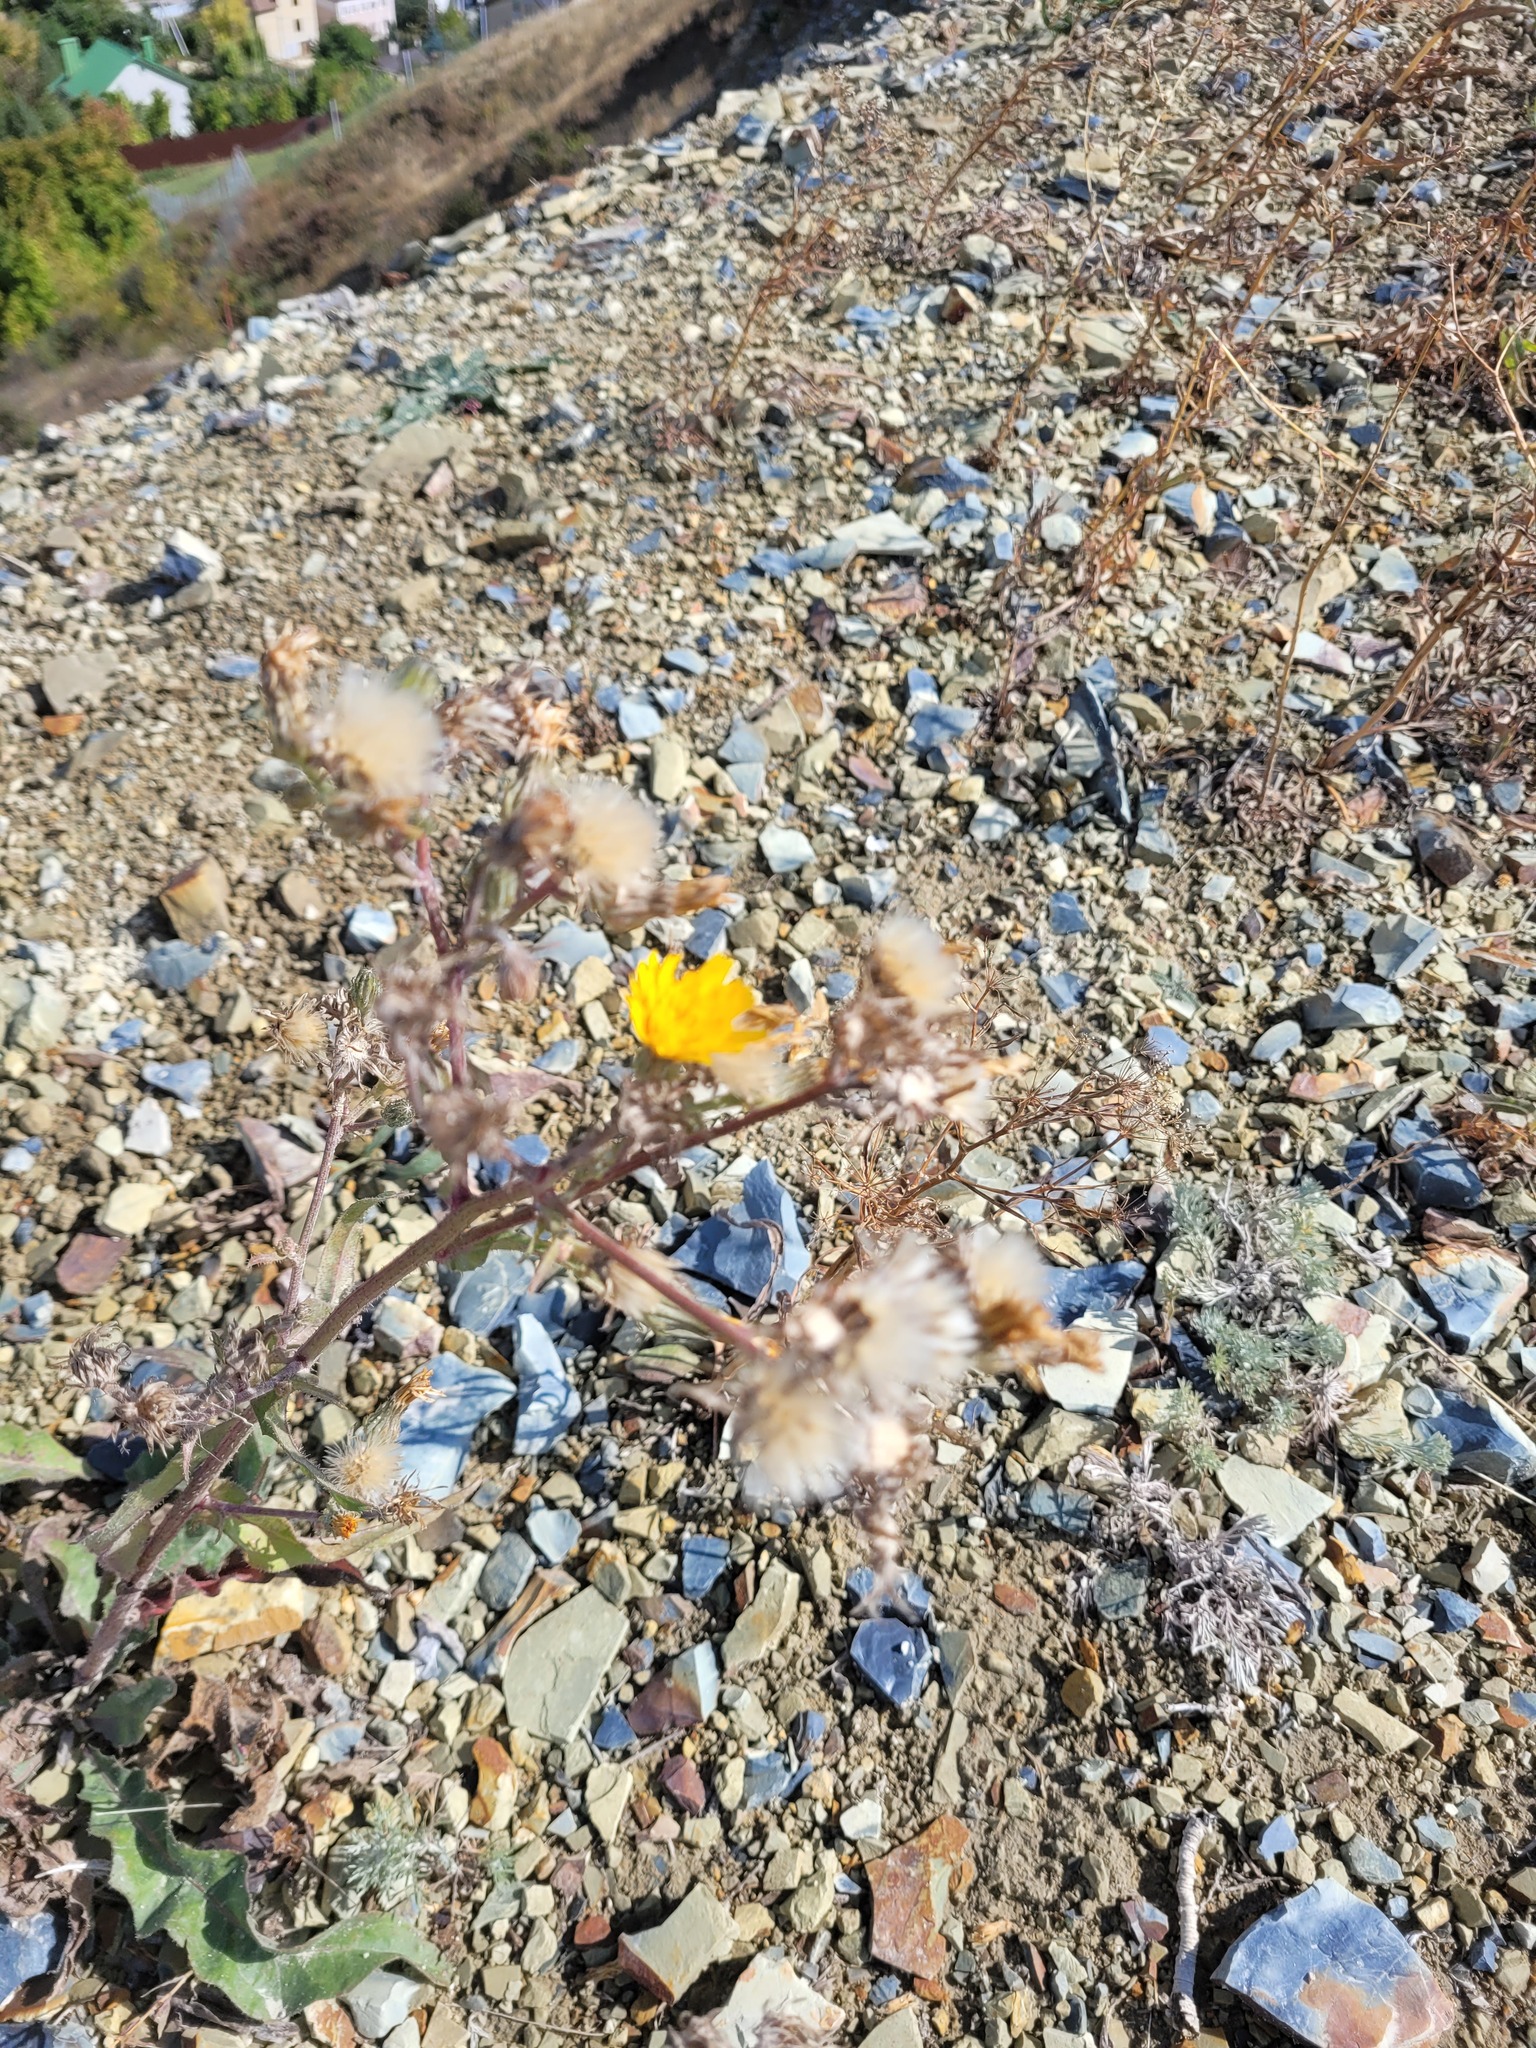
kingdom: Plantae
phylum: Tracheophyta
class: Magnoliopsida
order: Asterales
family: Asteraceae
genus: Picris
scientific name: Picris hieracioides
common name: Hawkweed oxtongue
